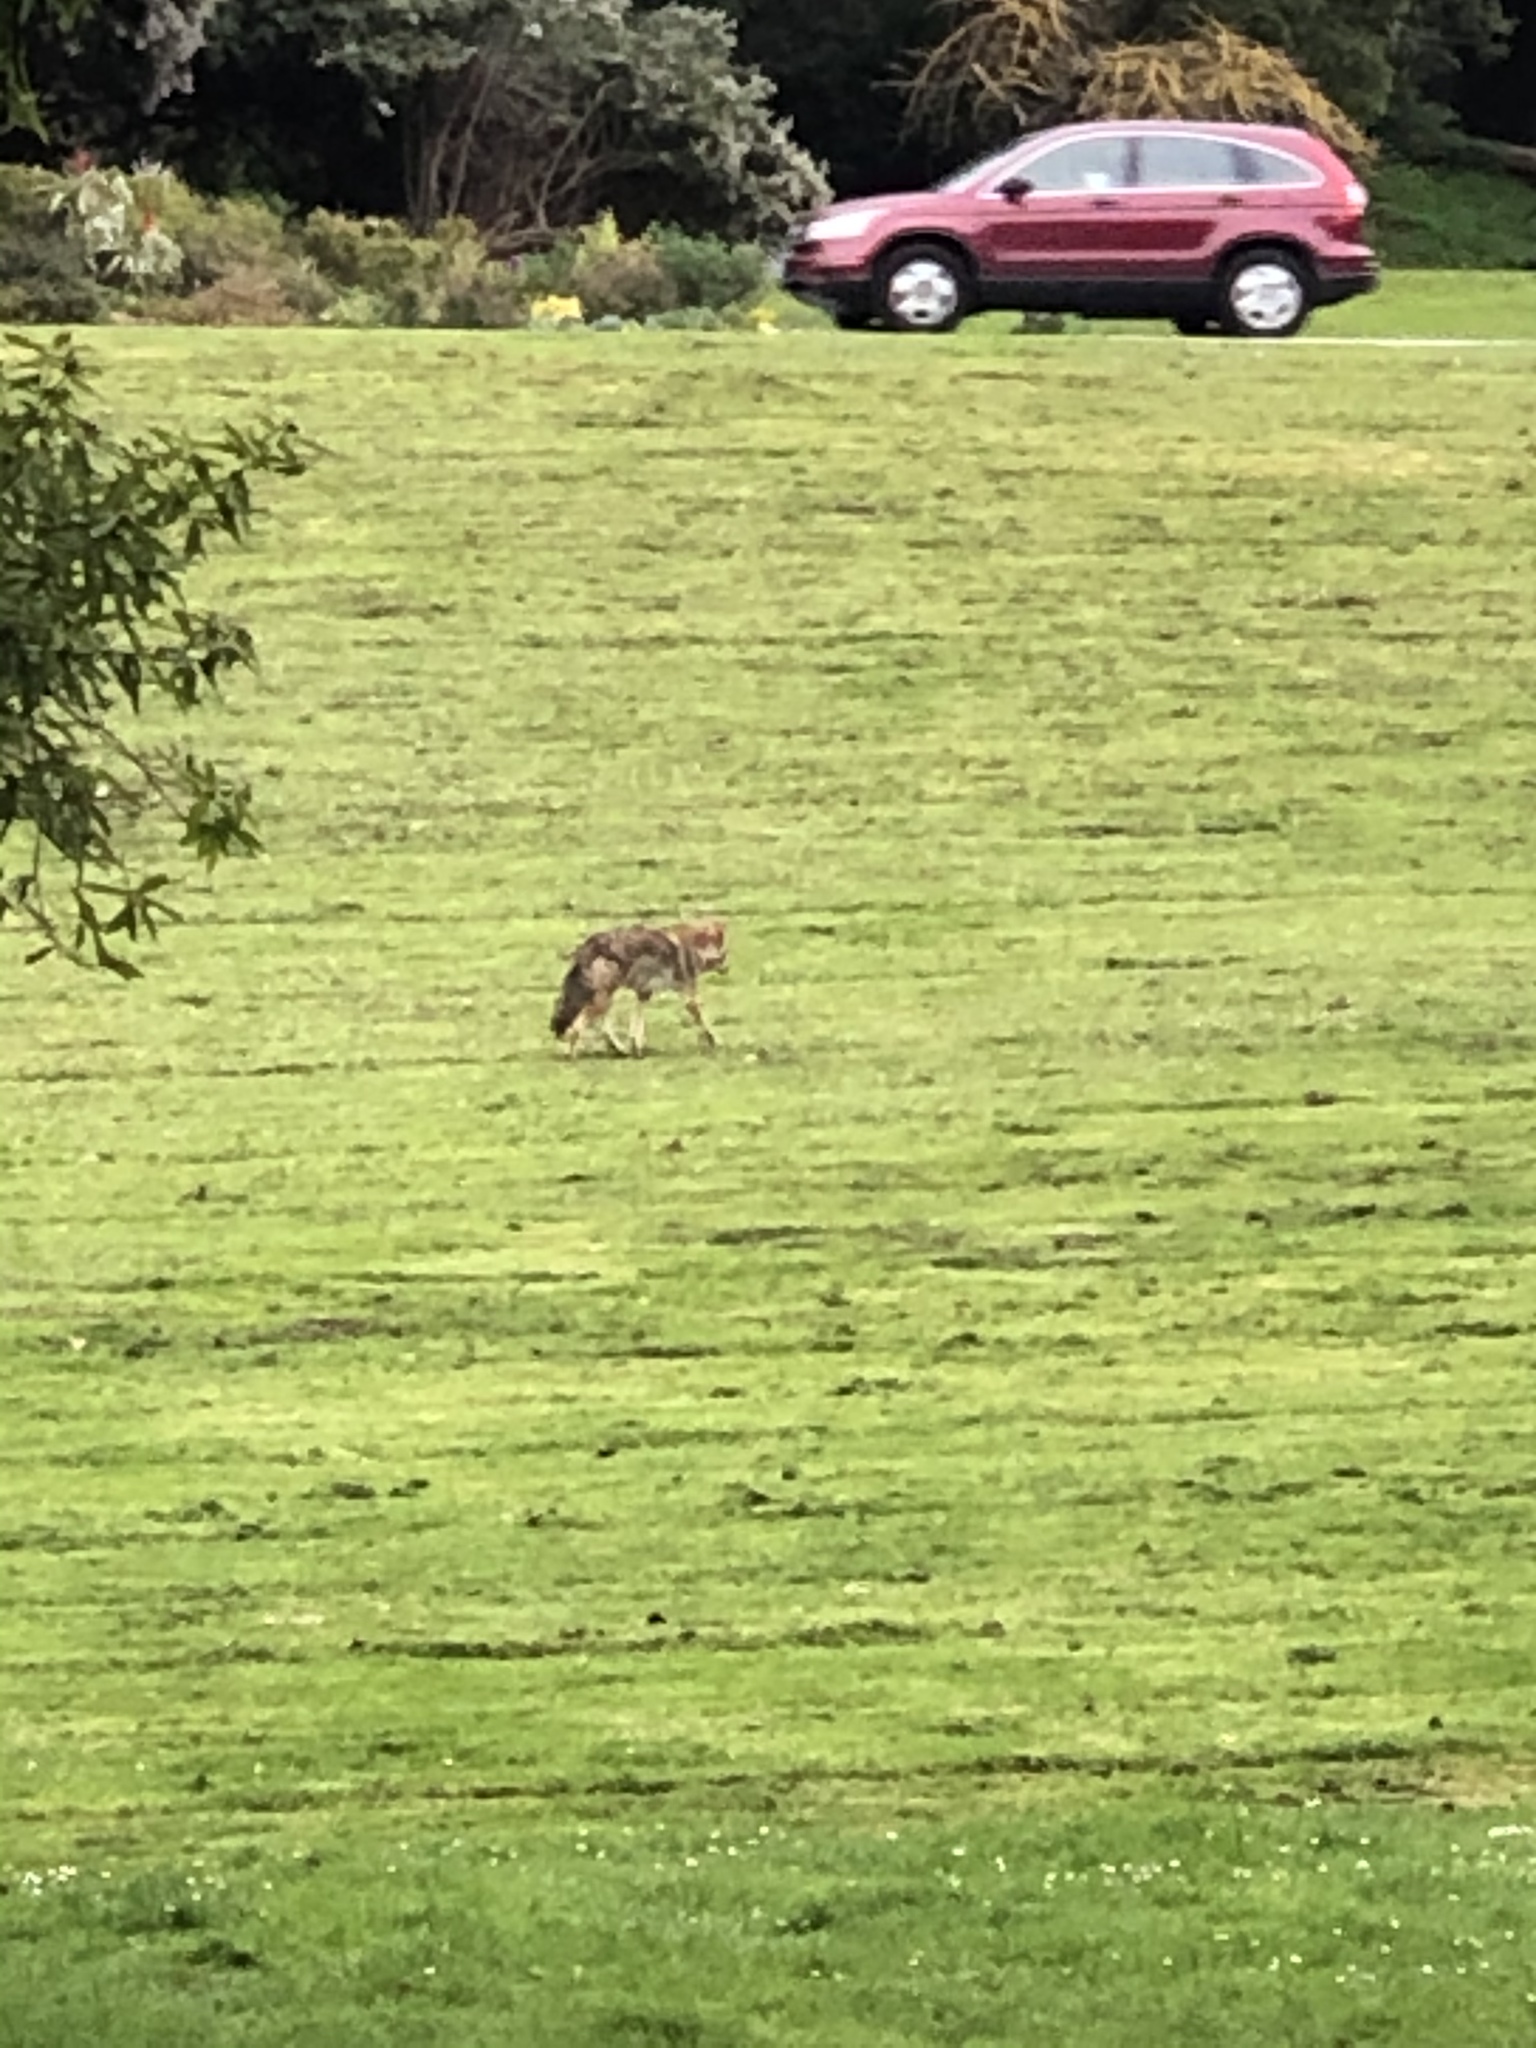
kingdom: Animalia
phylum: Chordata
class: Mammalia
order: Carnivora
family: Canidae
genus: Canis
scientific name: Canis latrans
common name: Coyote
